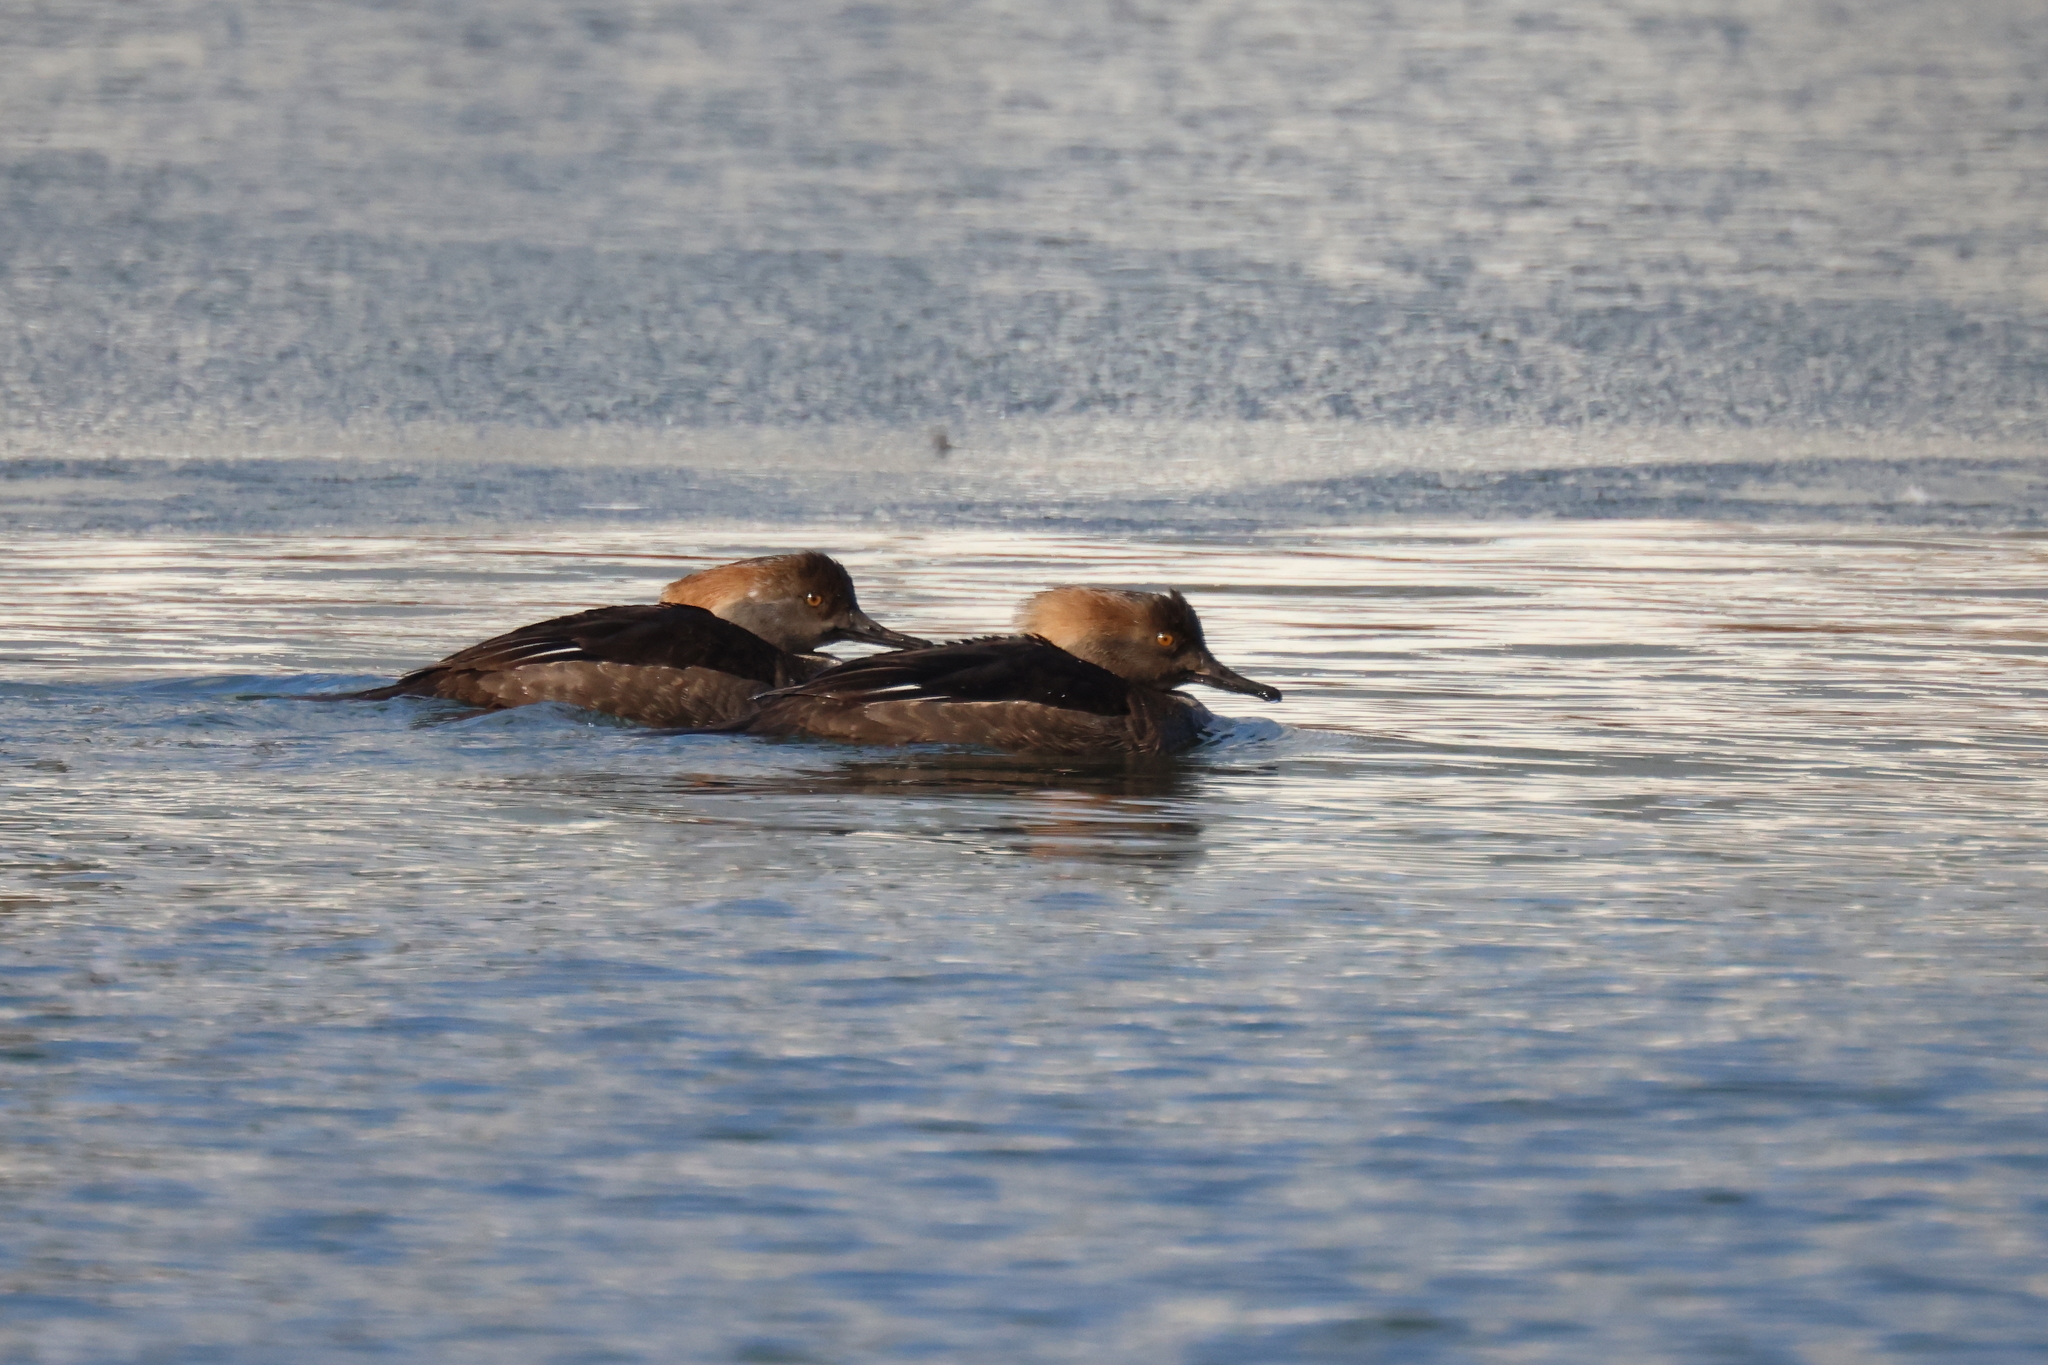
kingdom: Animalia
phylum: Chordata
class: Aves
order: Anseriformes
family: Anatidae
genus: Lophodytes
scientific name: Lophodytes cucullatus
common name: Hooded merganser
